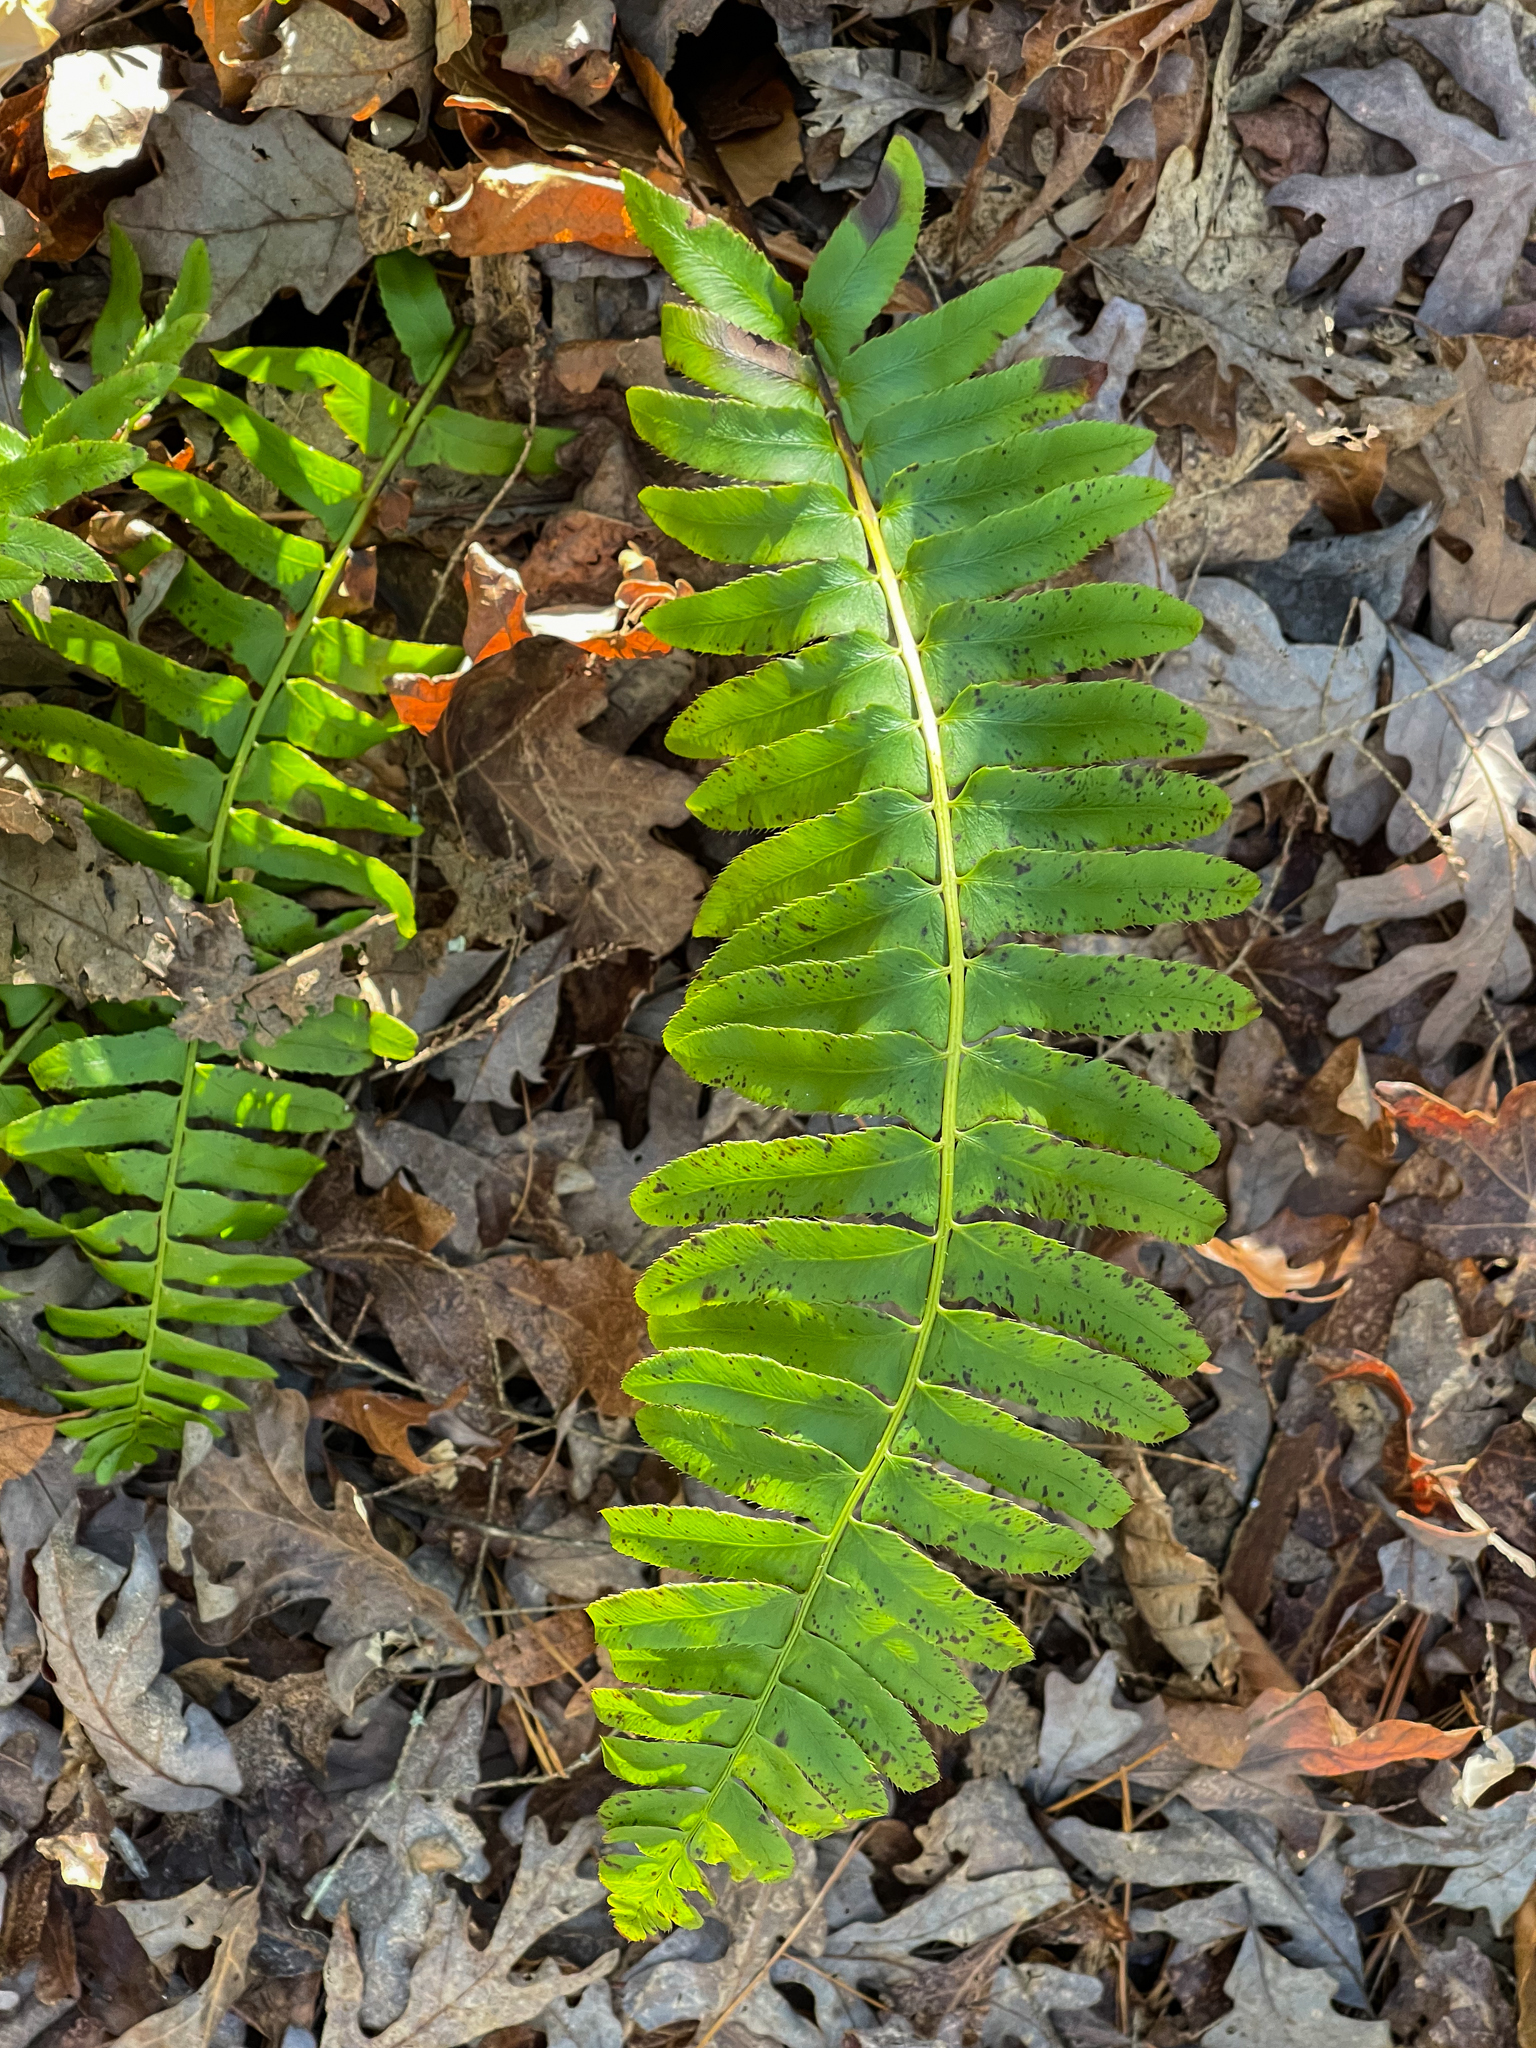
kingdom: Plantae
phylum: Tracheophyta
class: Polypodiopsida
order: Polypodiales
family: Dryopteridaceae
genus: Polystichum
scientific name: Polystichum acrostichoides
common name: Christmas fern
